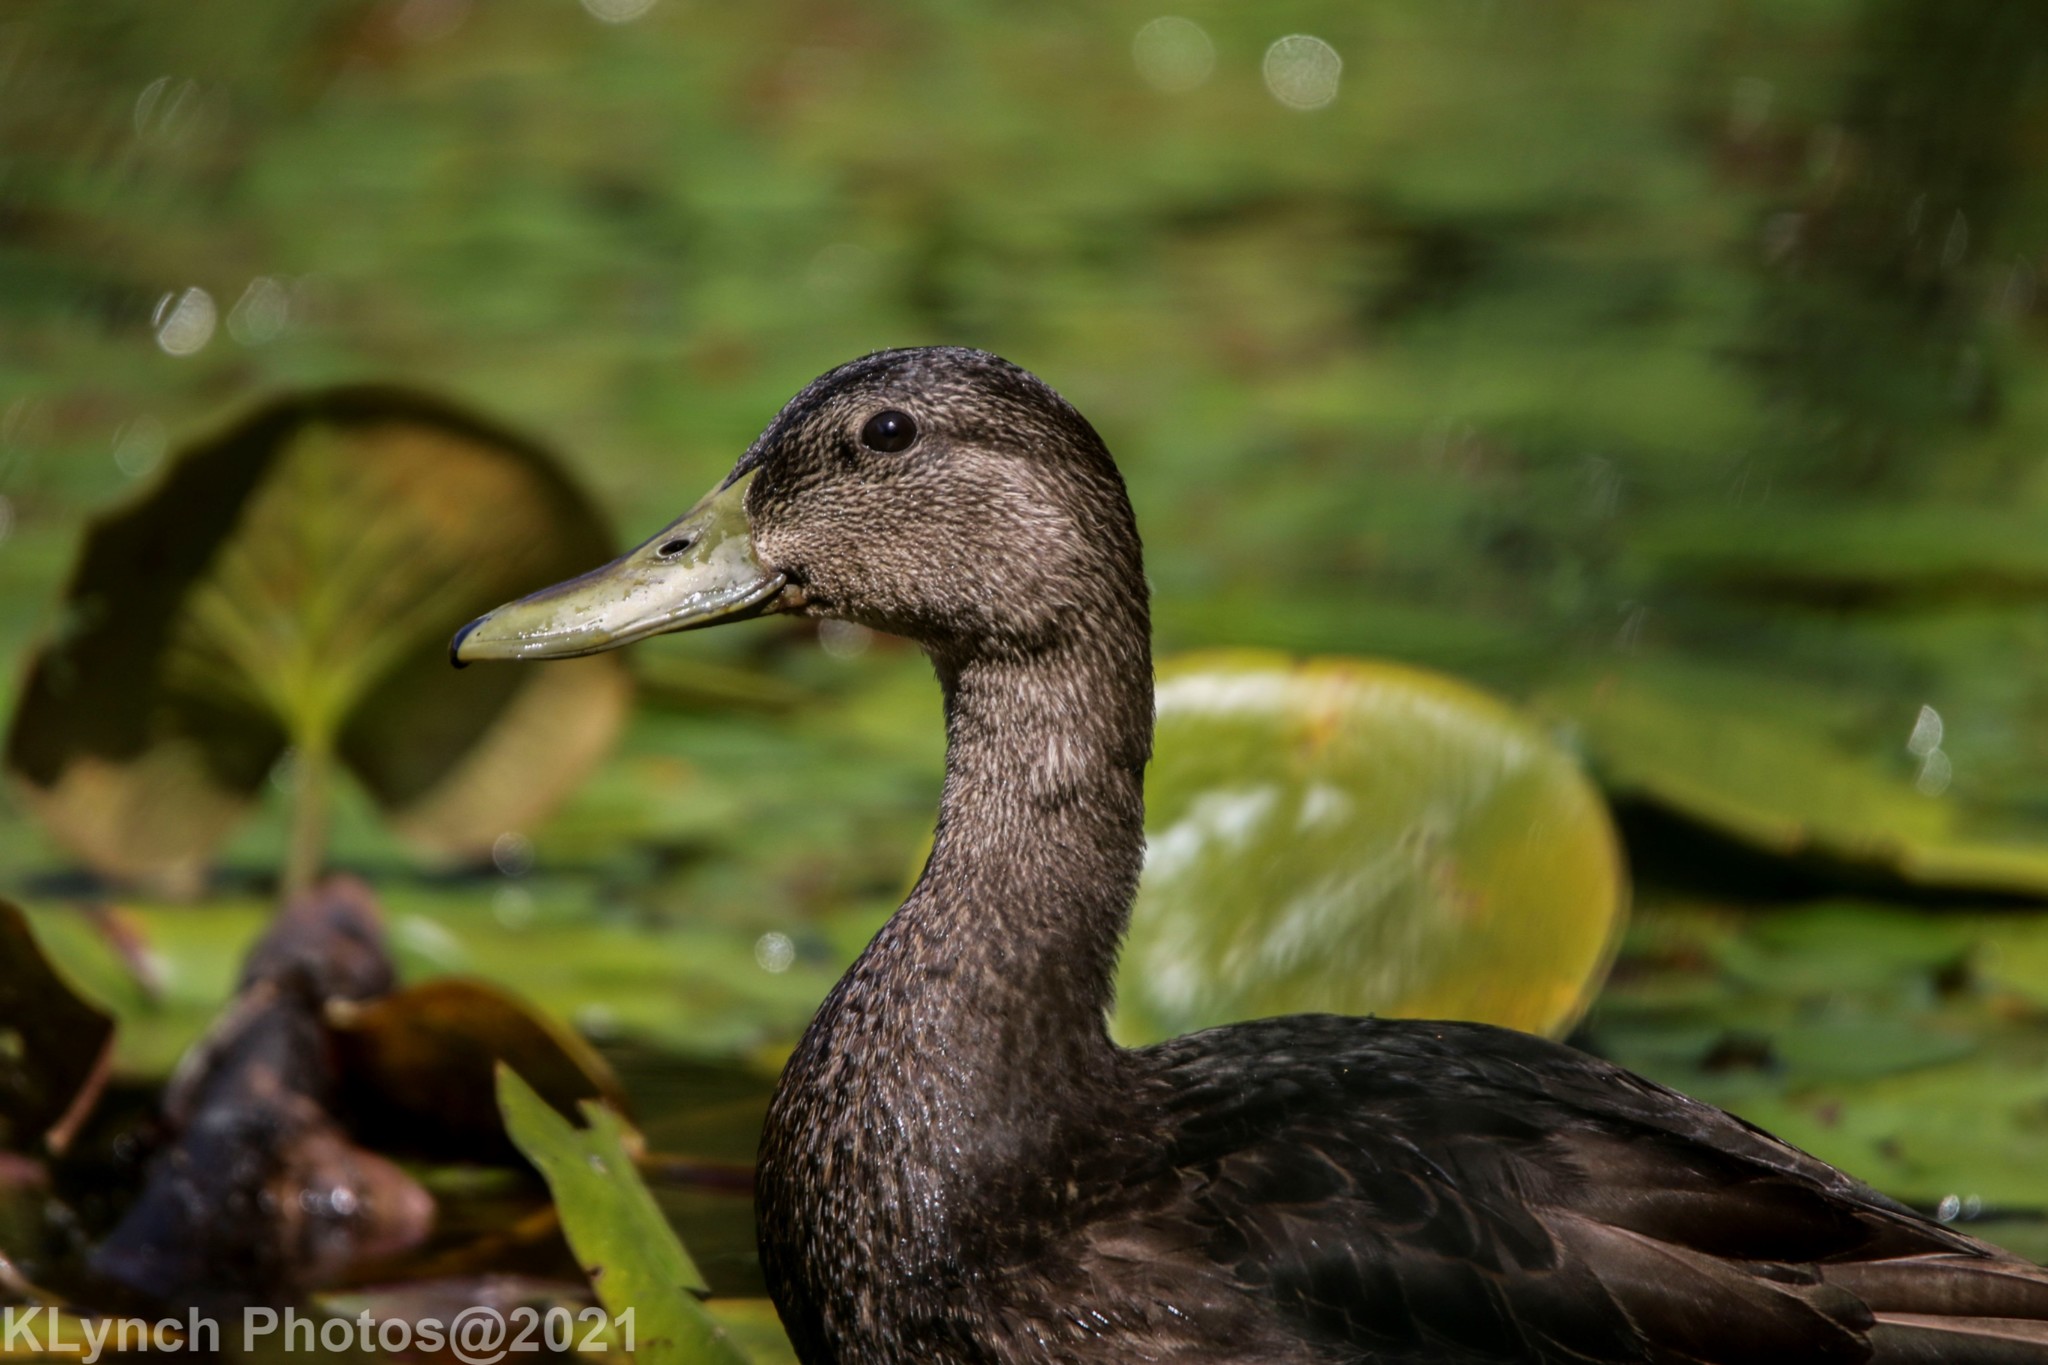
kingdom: Animalia
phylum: Chordata
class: Aves
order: Anseriformes
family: Anatidae
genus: Anas
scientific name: Anas rubripes
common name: American black duck
